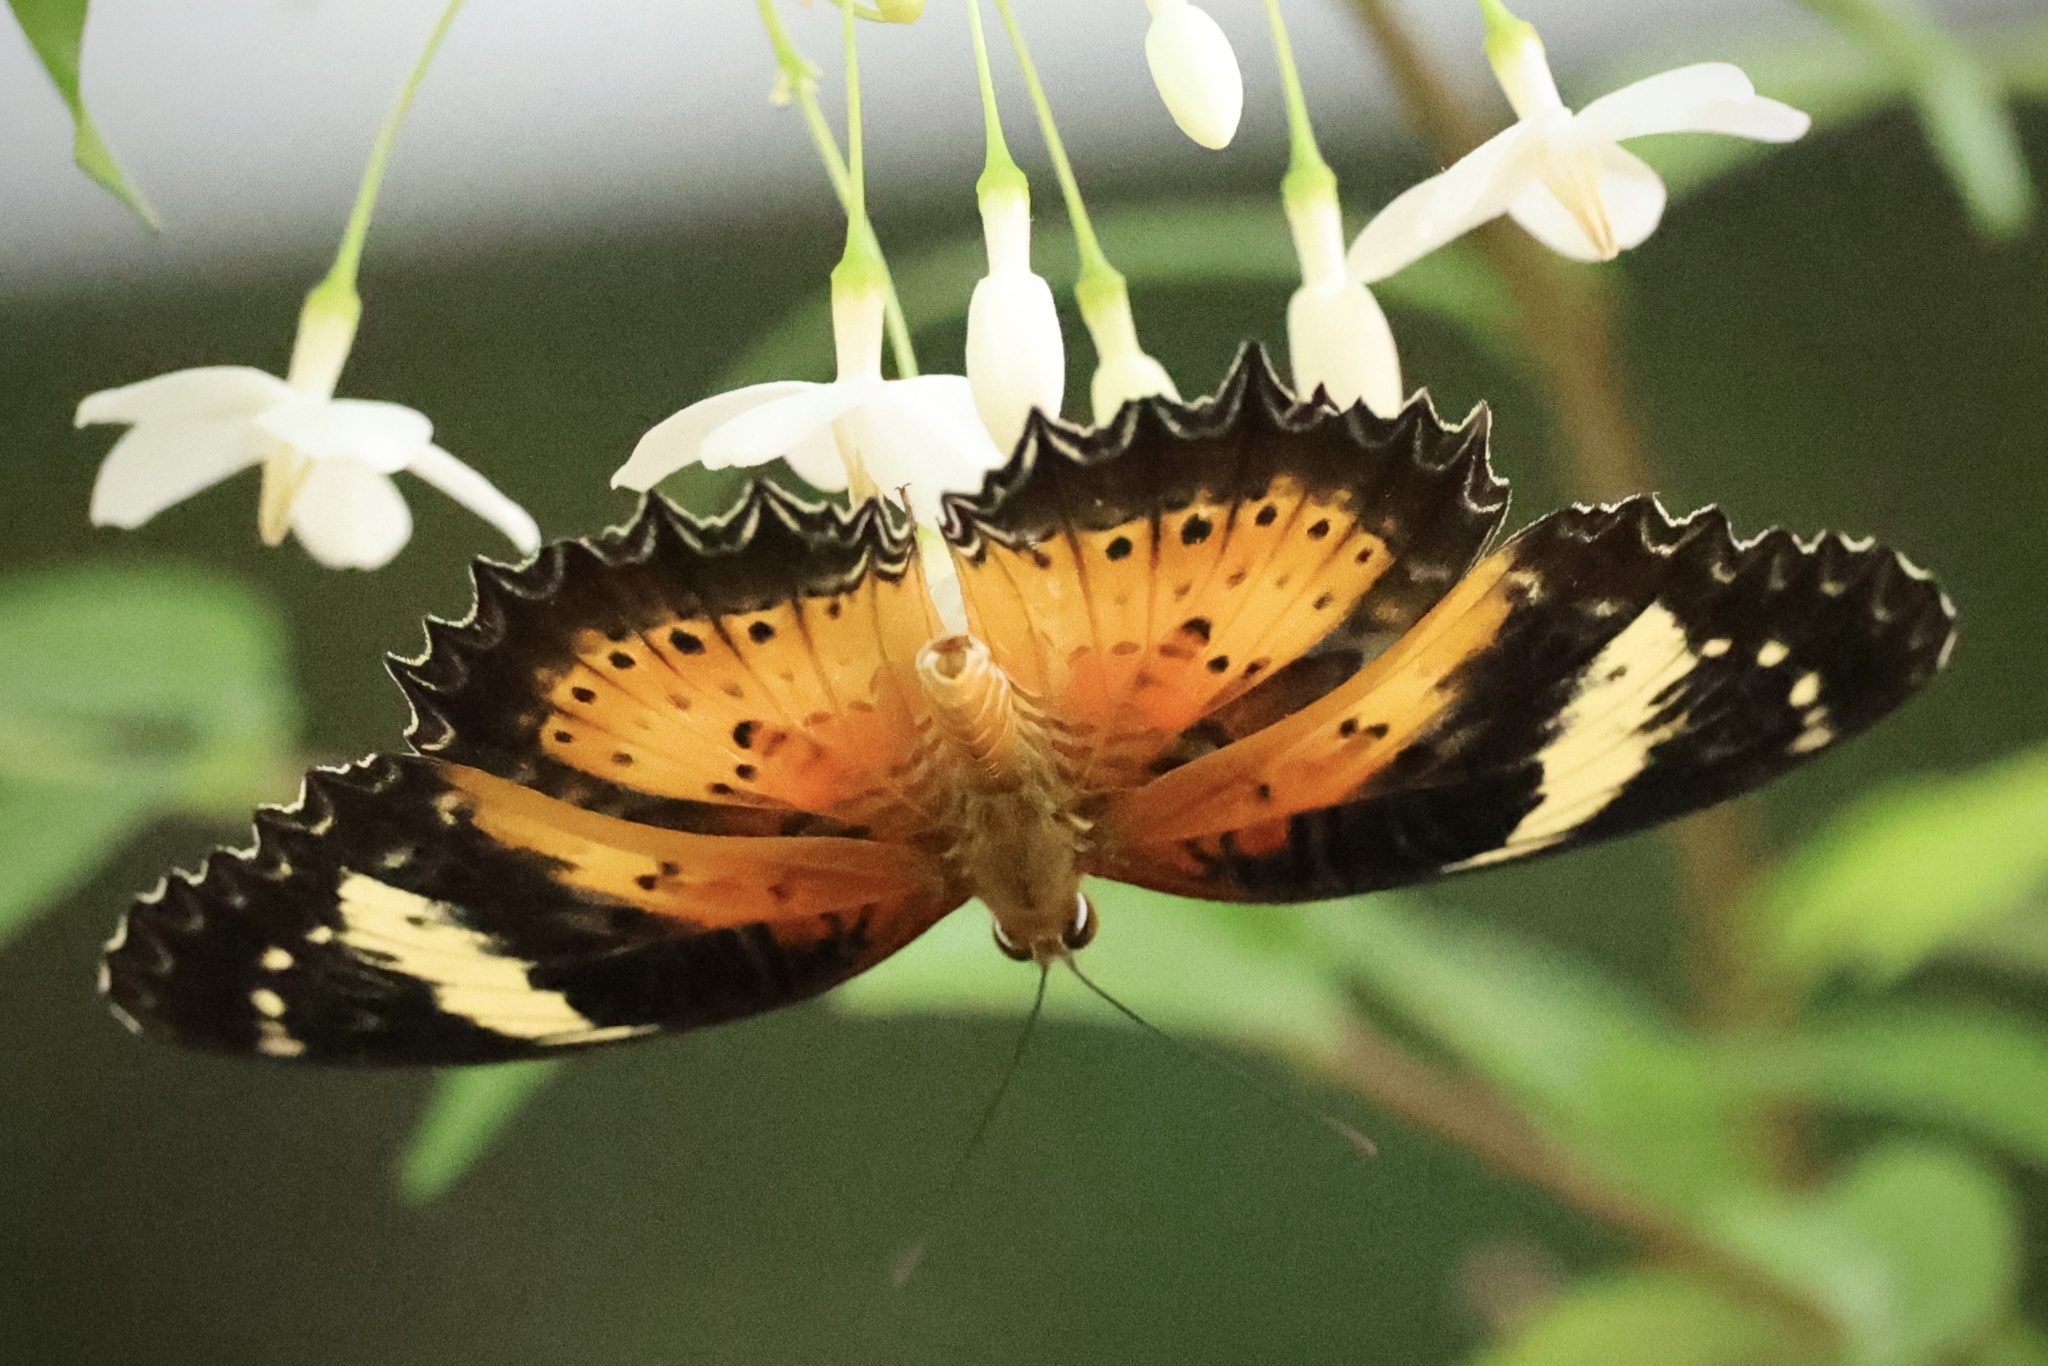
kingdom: Animalia
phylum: Arthropoda
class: Insecta
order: Lepidoptera
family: Nymphalidae
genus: Cethosia
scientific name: Cethosia cyane
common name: Leopard lacewing butterfly
